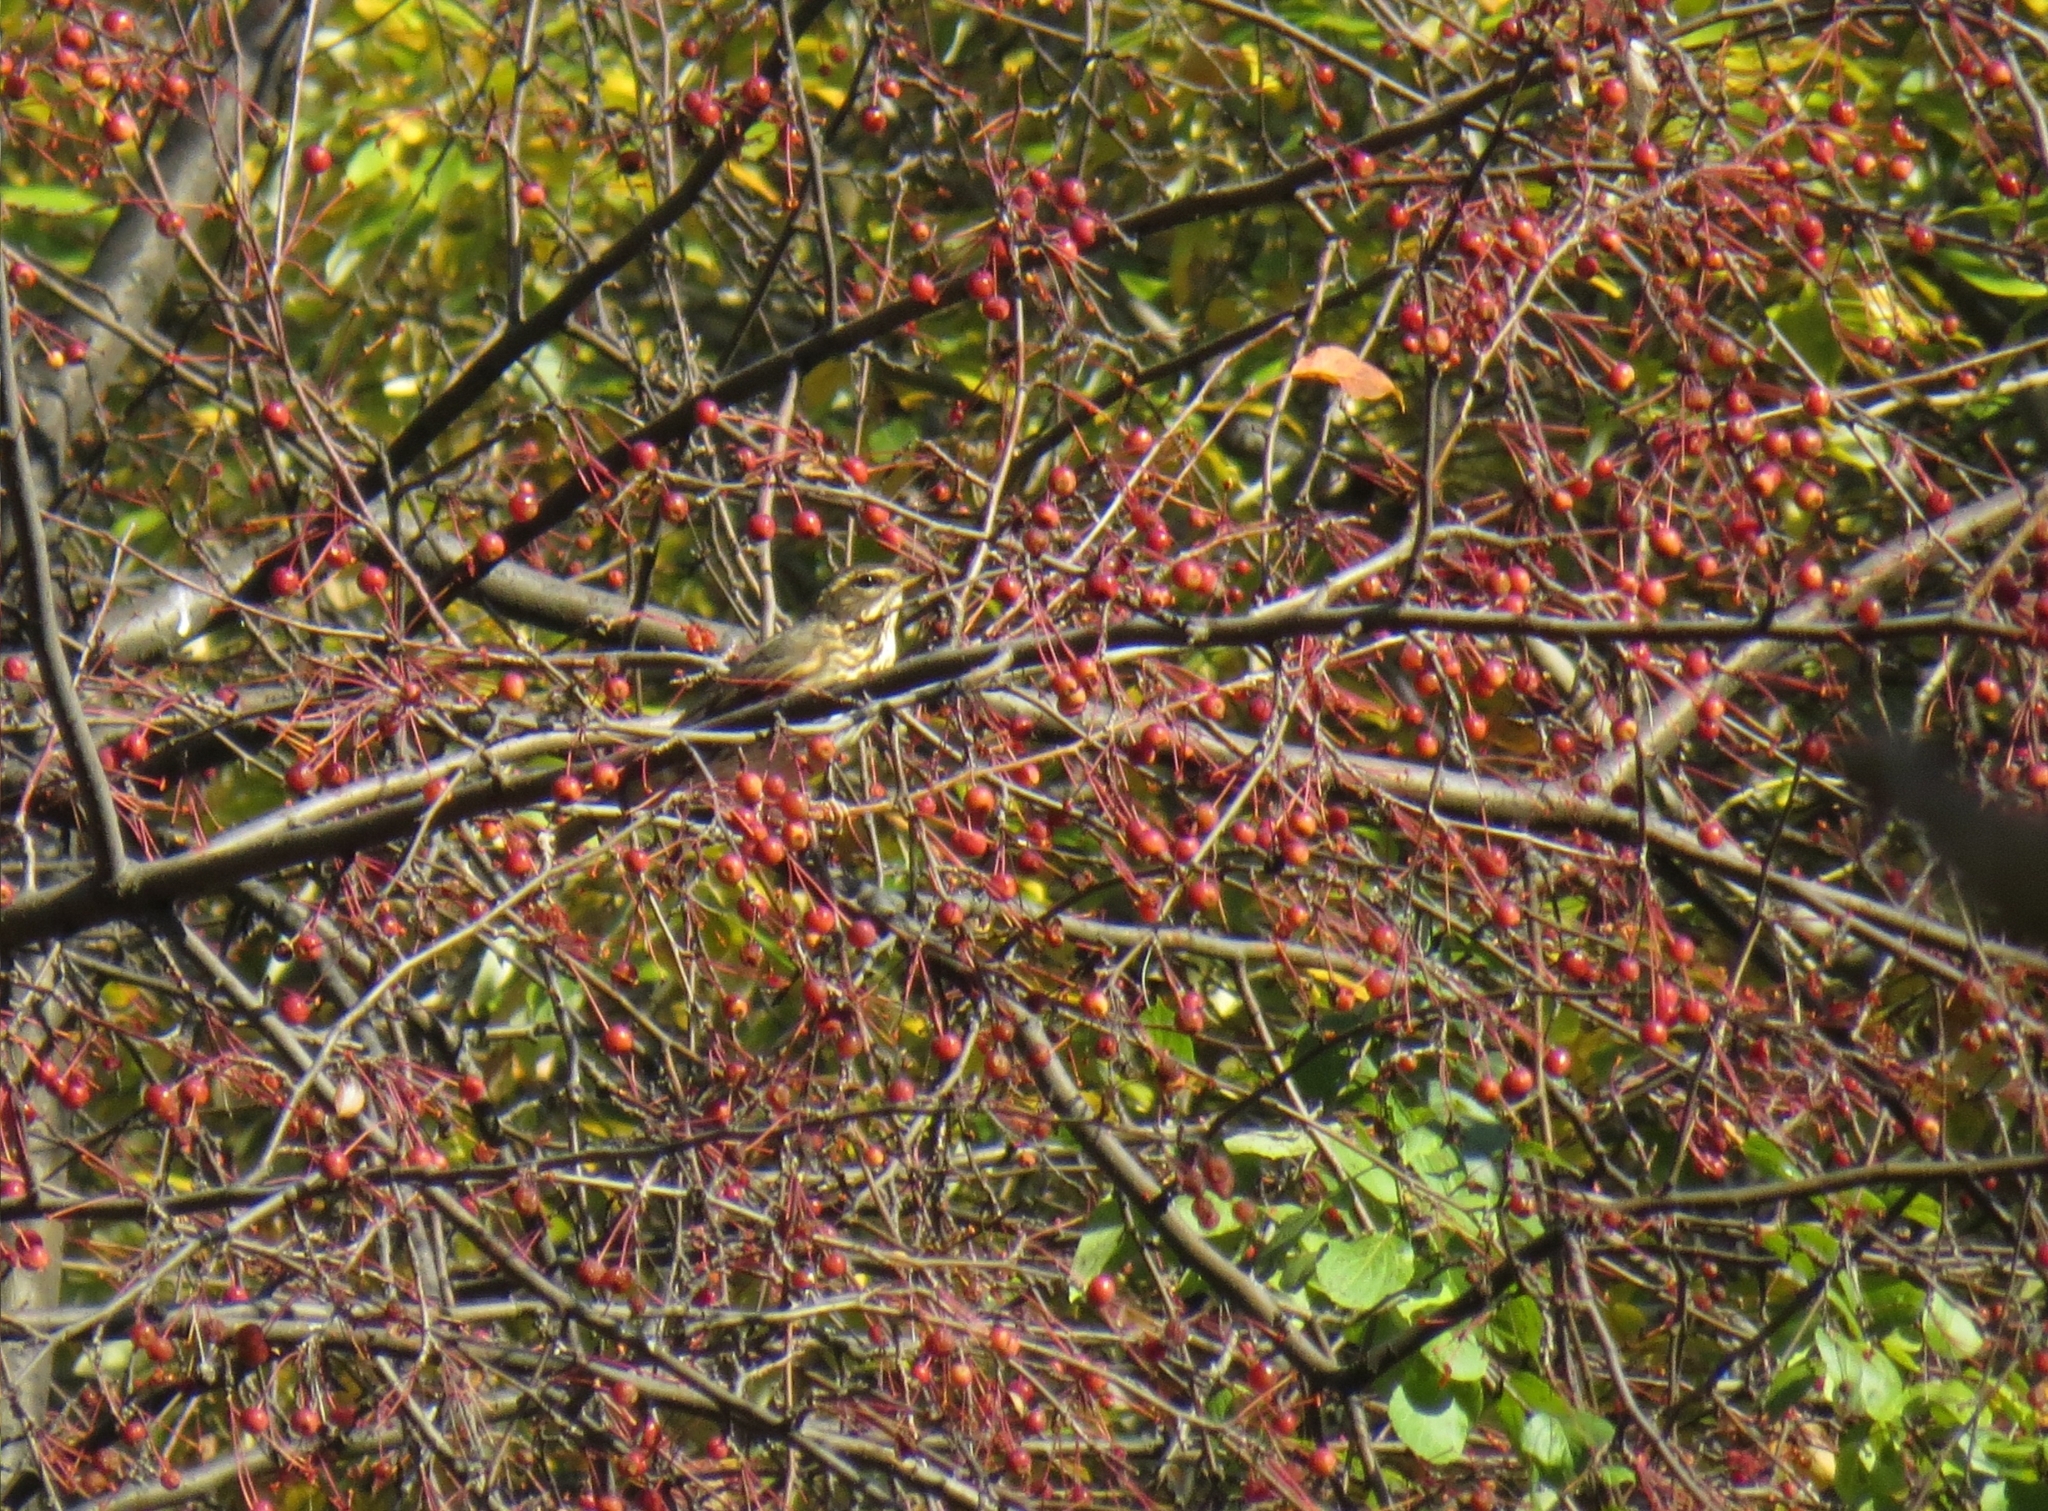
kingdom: Animalia
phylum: Chordata
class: Aves
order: Passeriformes
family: Turdidae
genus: Turdus
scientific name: Turdus iliacus
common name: Redwing
